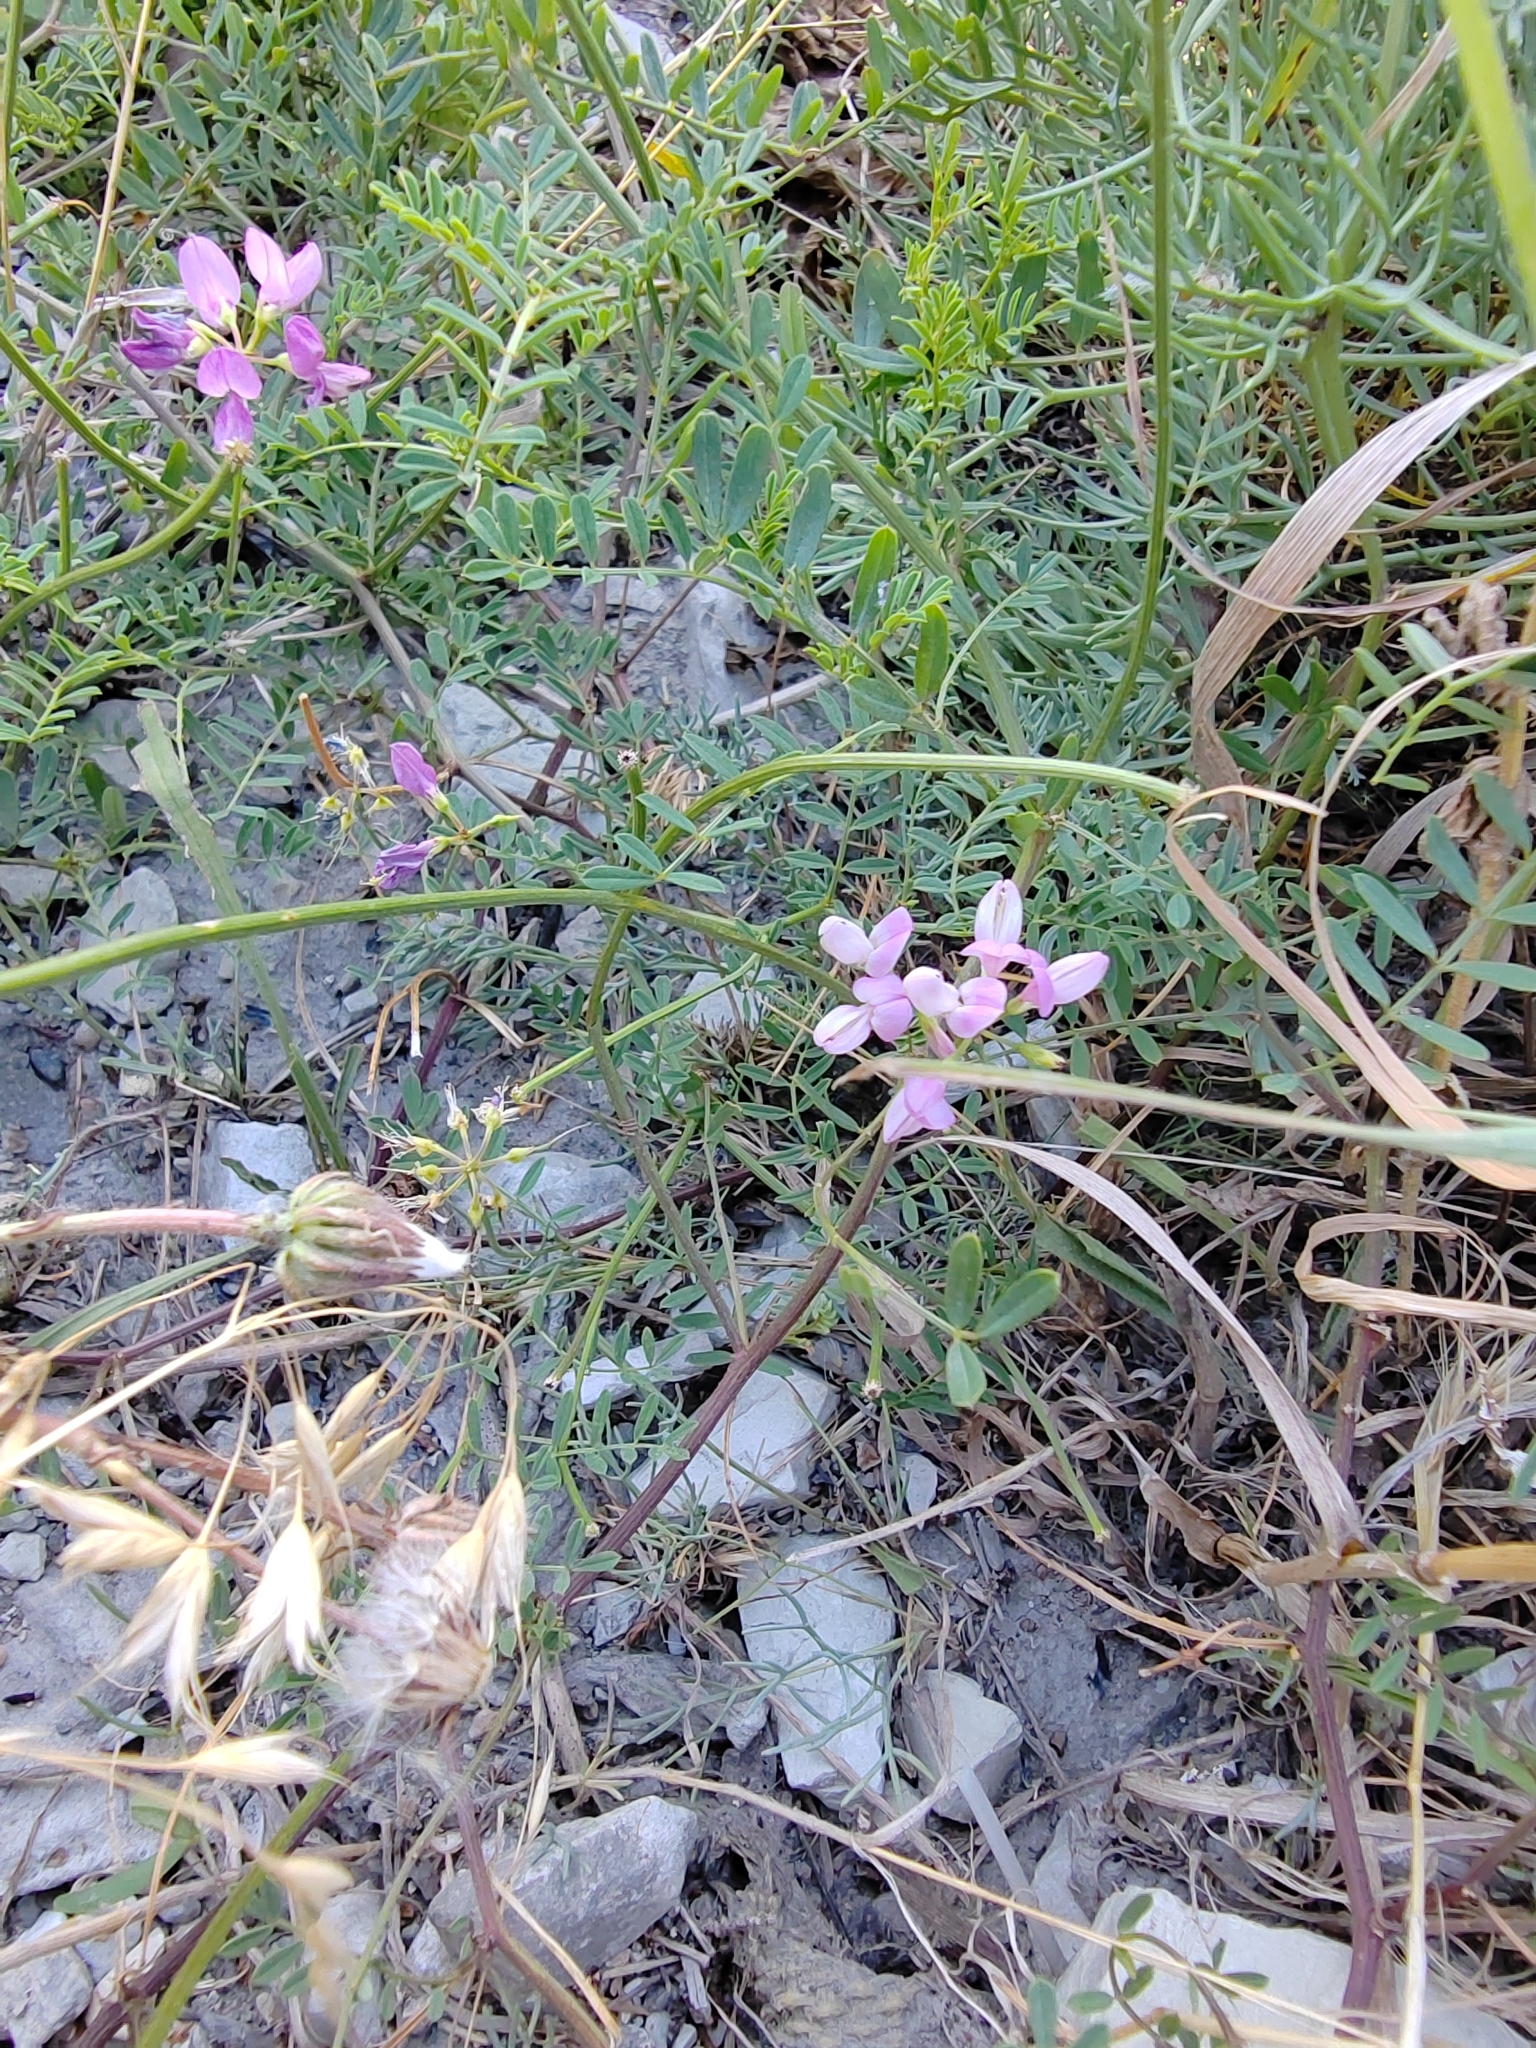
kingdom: Plantae
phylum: Tracheophyta
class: Magnoliopsida
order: Fabales
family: Fabaceae
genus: Coronilla
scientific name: Coronilla varia
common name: Crownvetch
